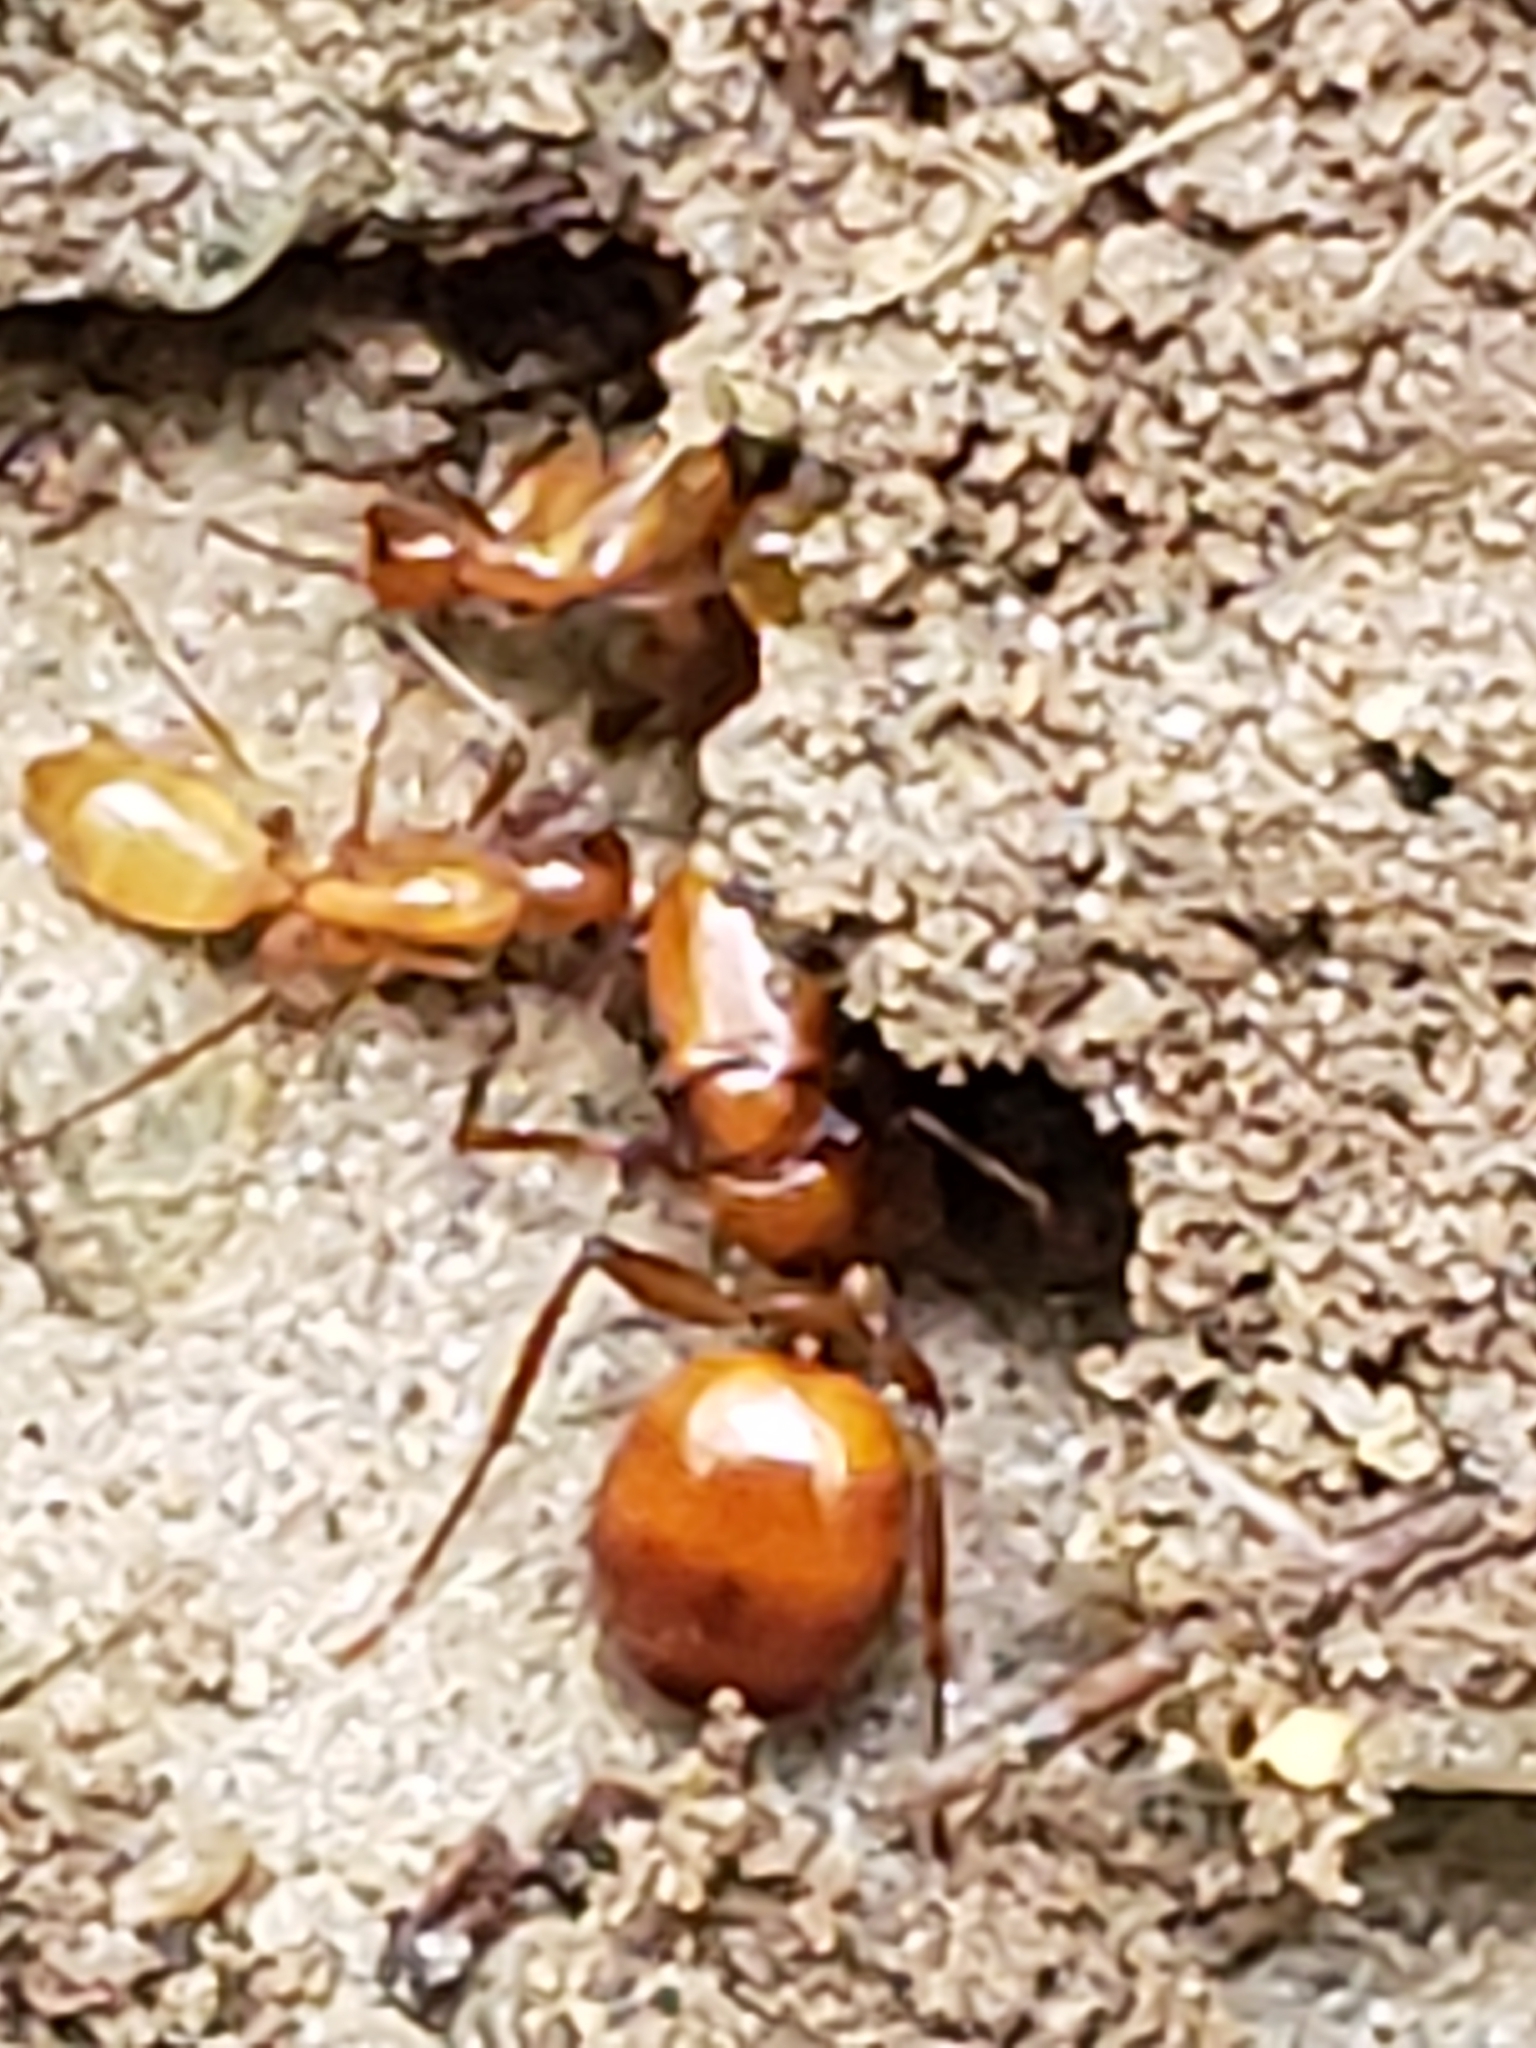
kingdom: Animalia
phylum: Arthropoda
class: Insecta
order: Hymenoptera
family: Formicidae
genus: Camponotus
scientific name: Camponotus castaneus
